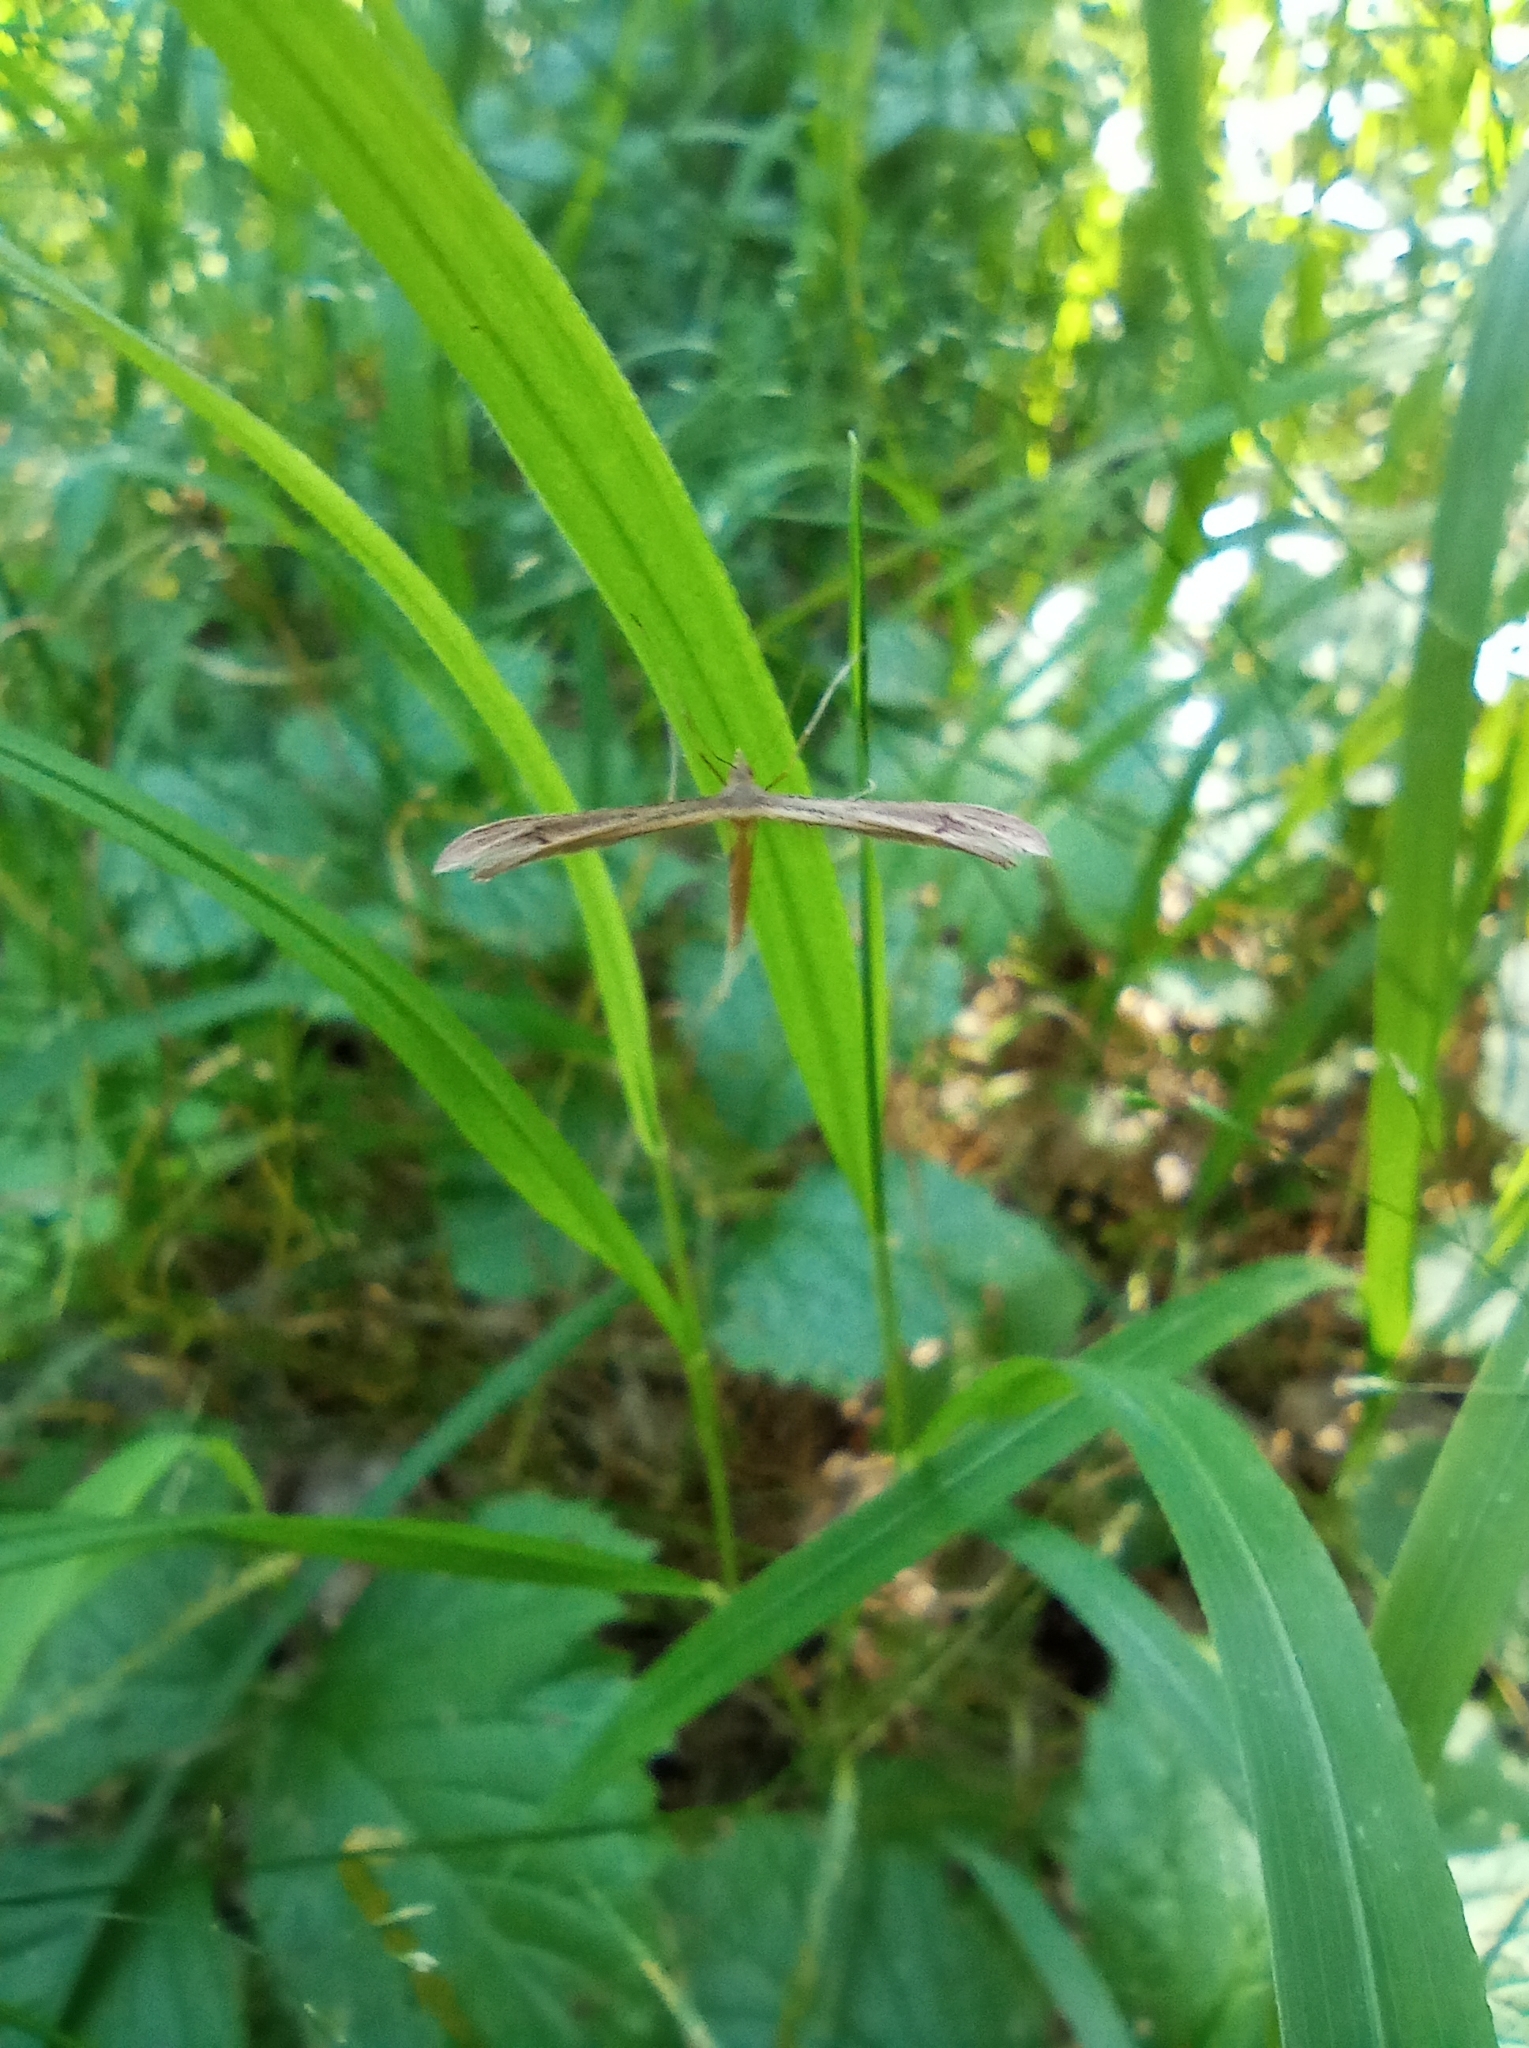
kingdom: Animalia
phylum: Arthropoda
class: Insecta
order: Lepidoptera
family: Pterophoridae
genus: Stenoptilia
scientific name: Stenoptilia pterodactyla
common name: Brown plume
